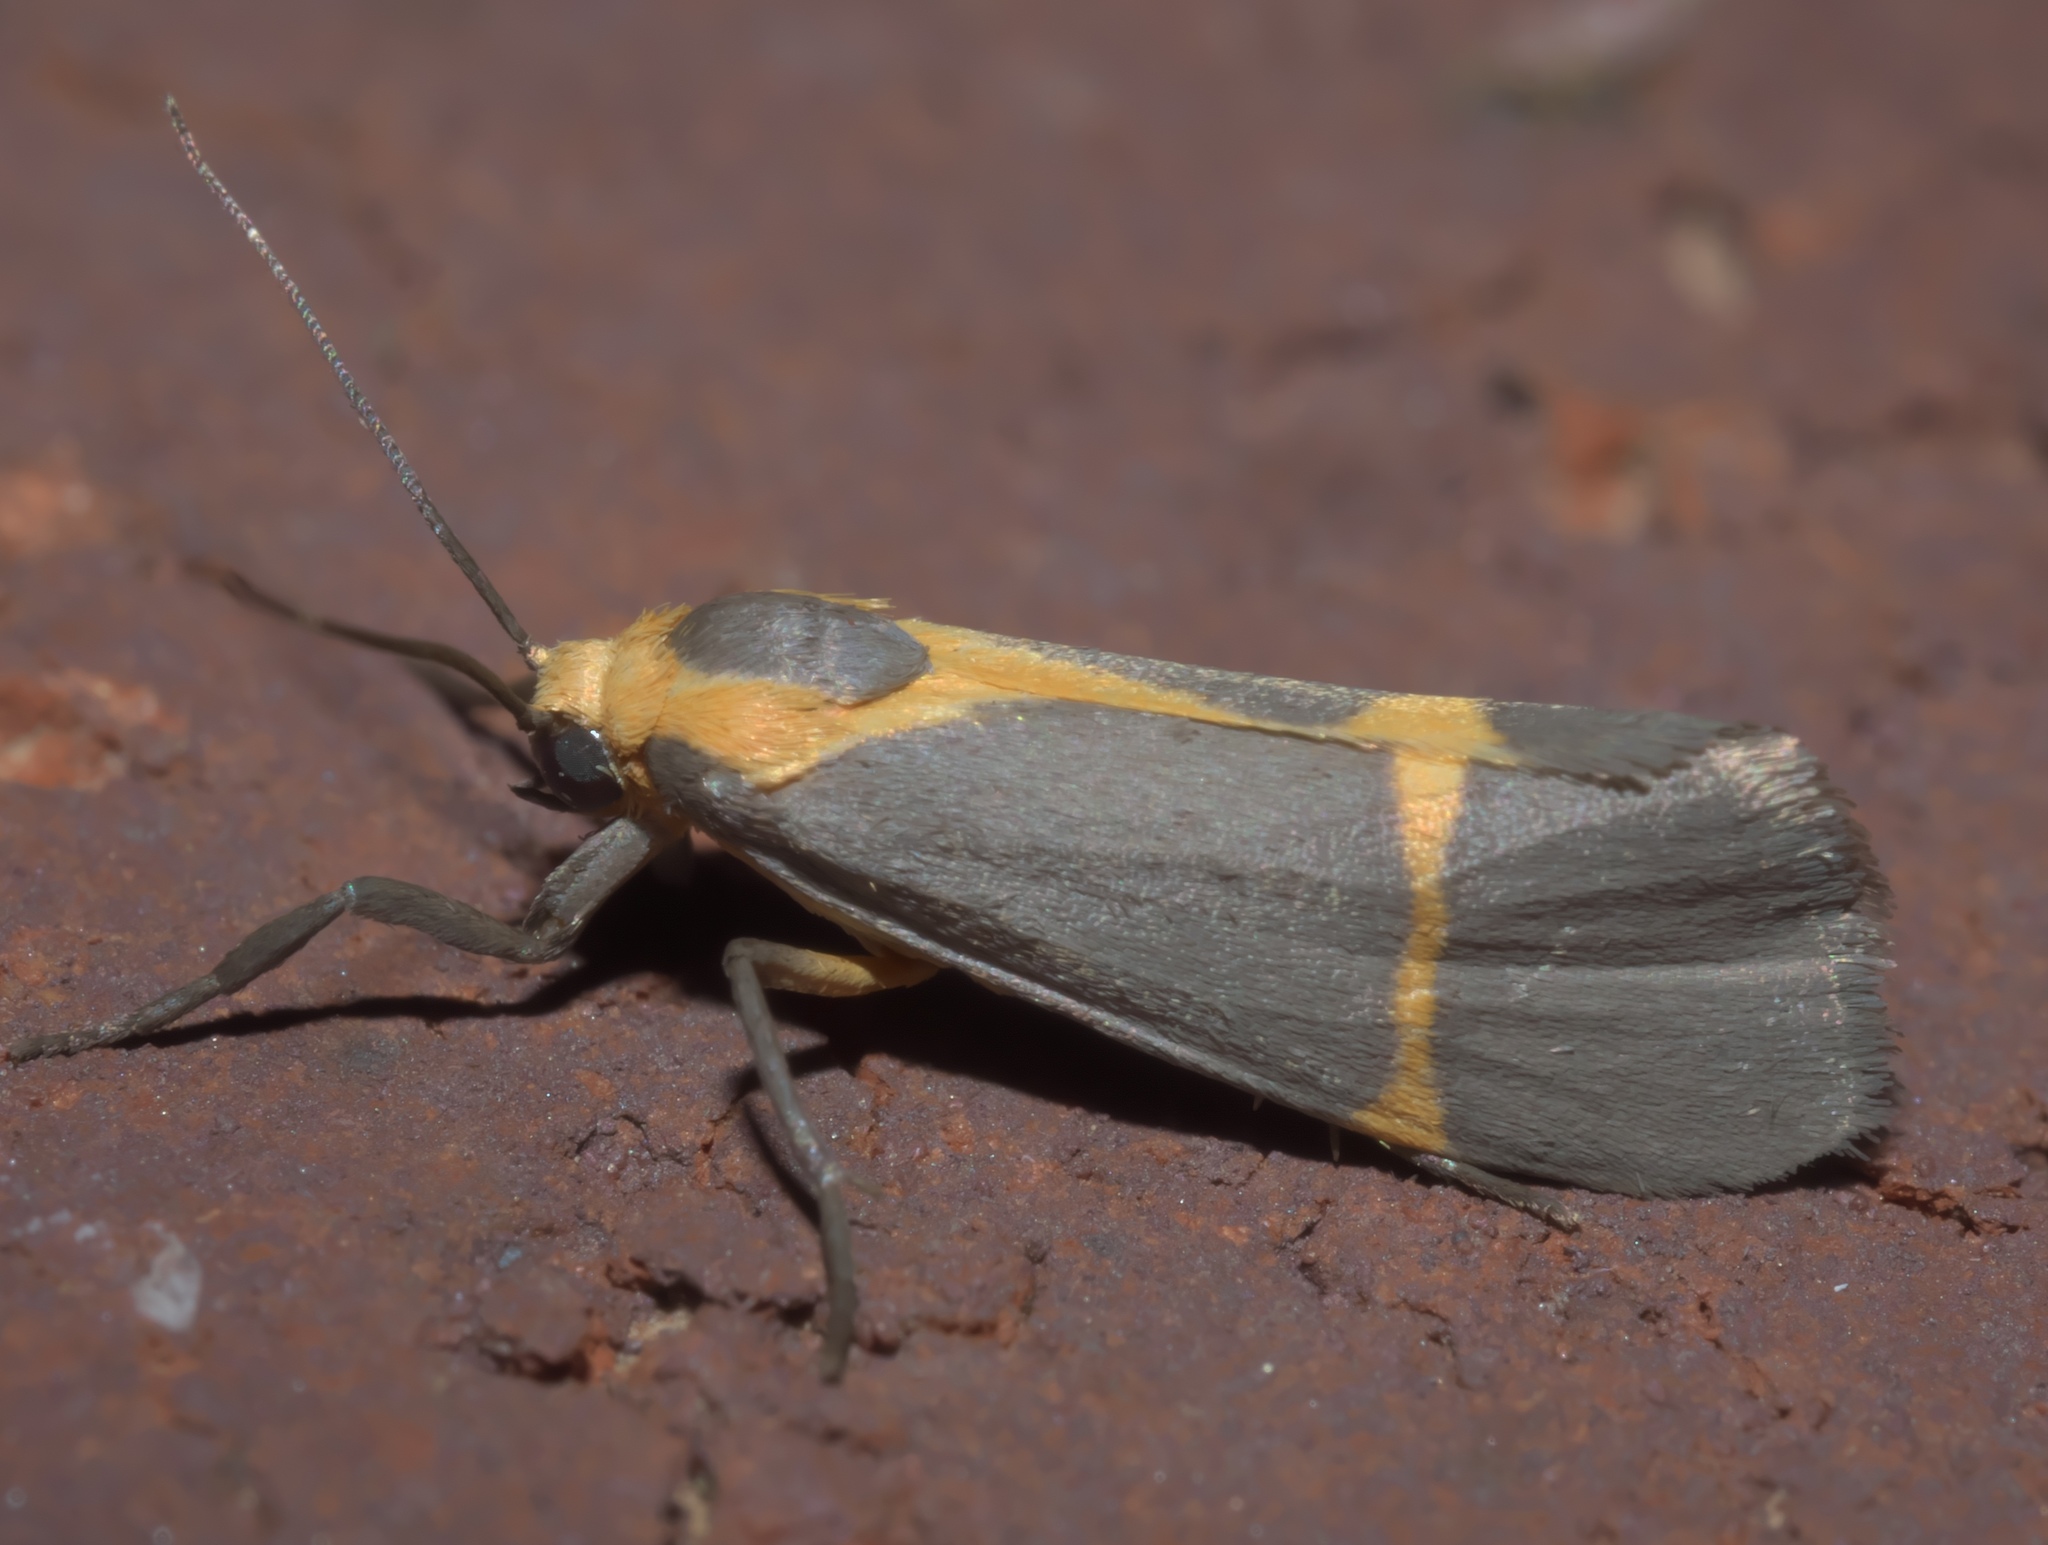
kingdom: Animalia
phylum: Arthropoda
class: Insecta
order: Lepidoptera
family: Erebidae
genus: Cisthene
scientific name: Cisthene tenuifascia
